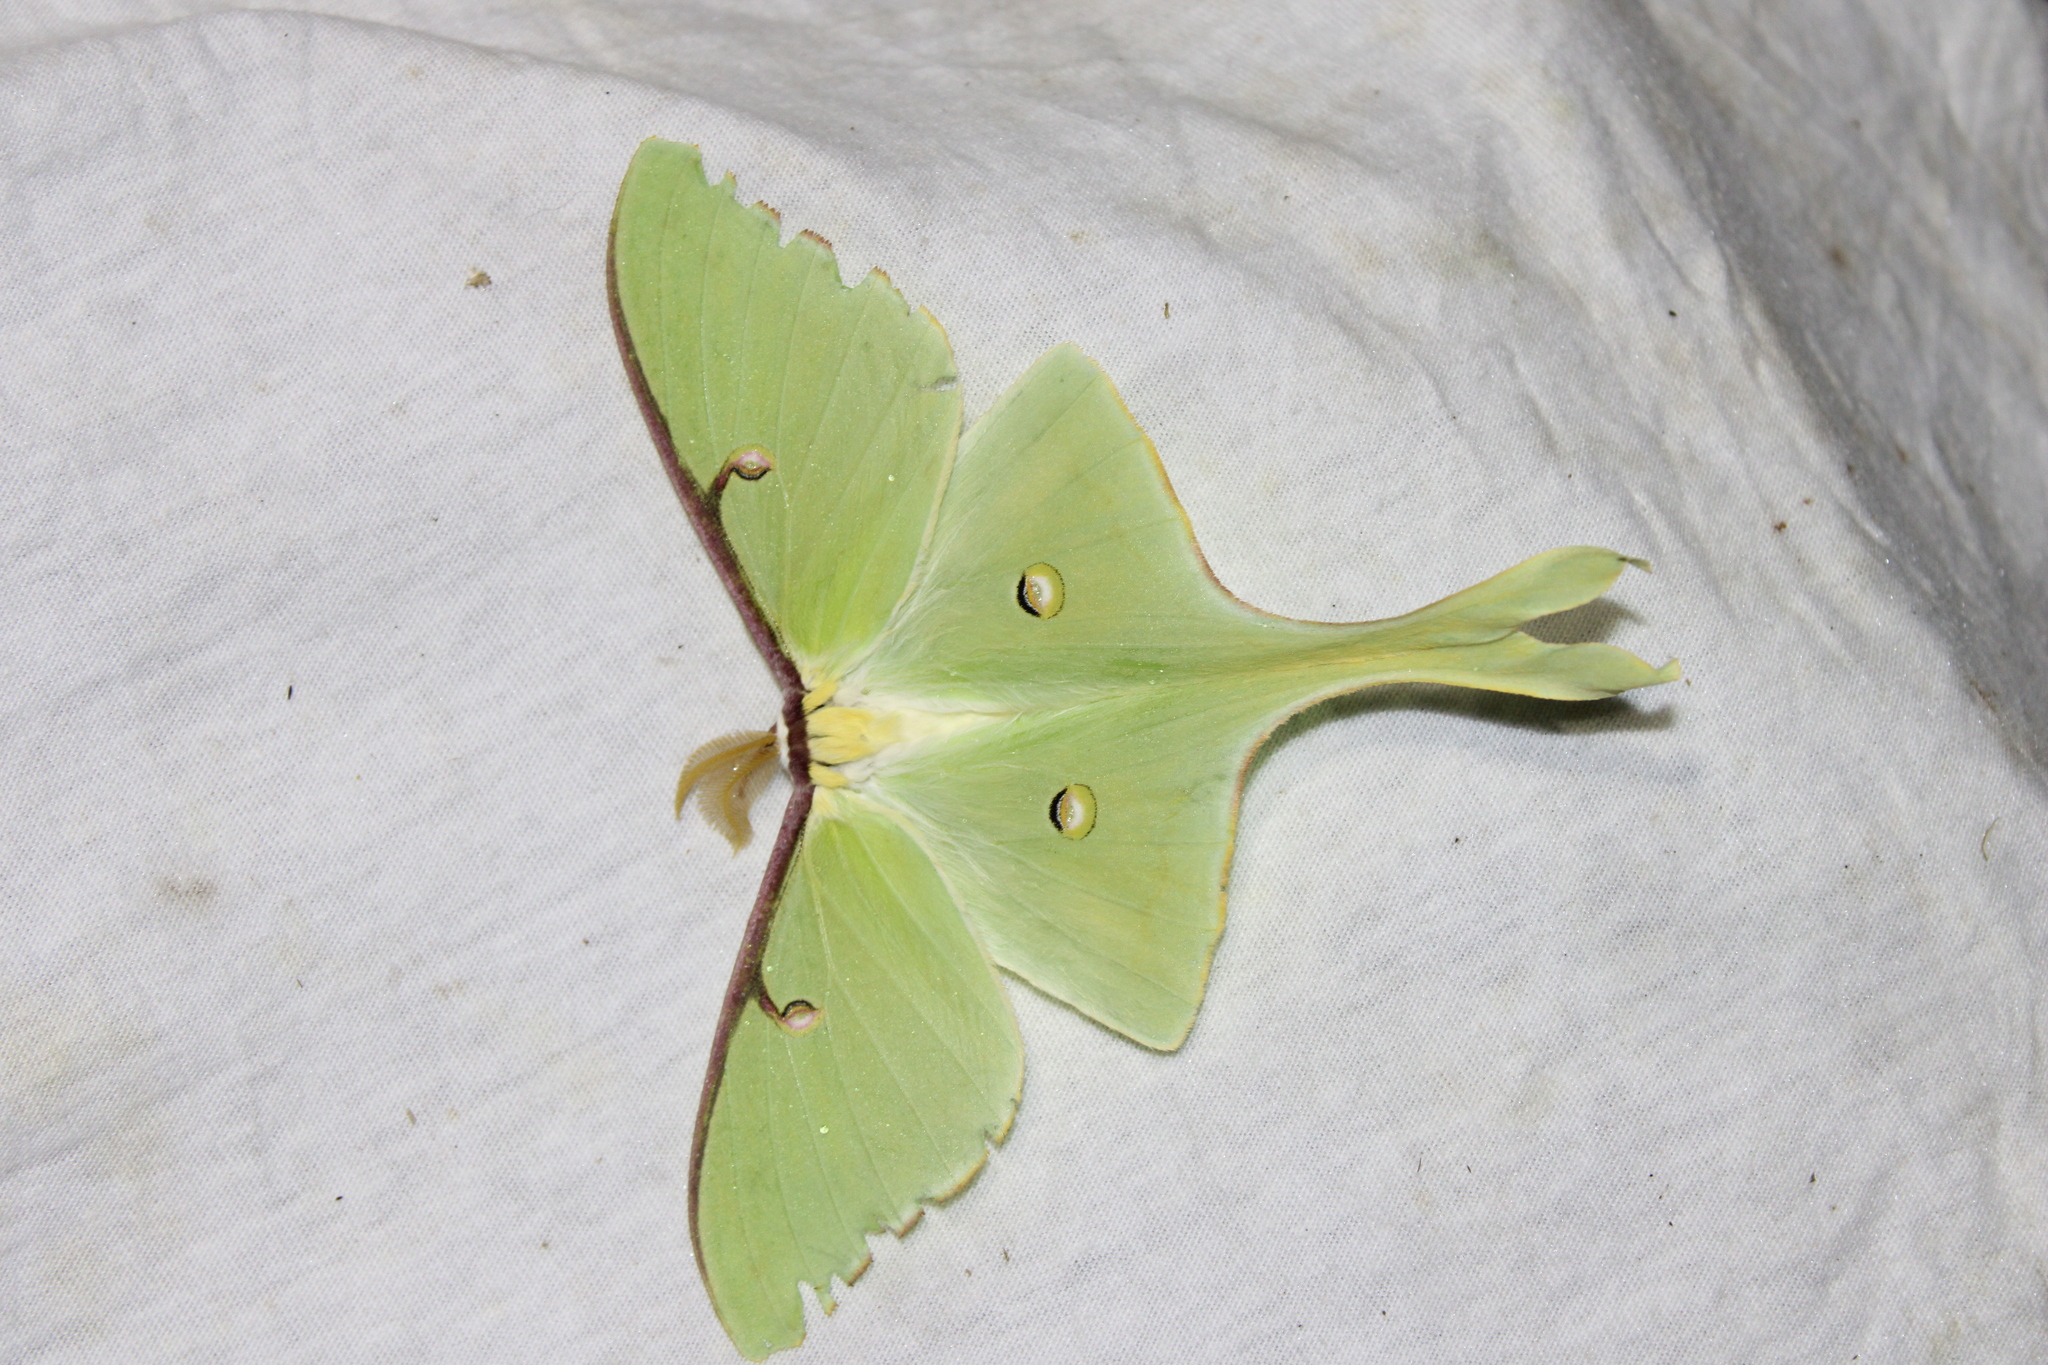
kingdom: Animalia
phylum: Arthropoda
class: Insecta
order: Lepidoptera
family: Saturniidae
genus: Actias
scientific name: Actias luna
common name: Luna moth
